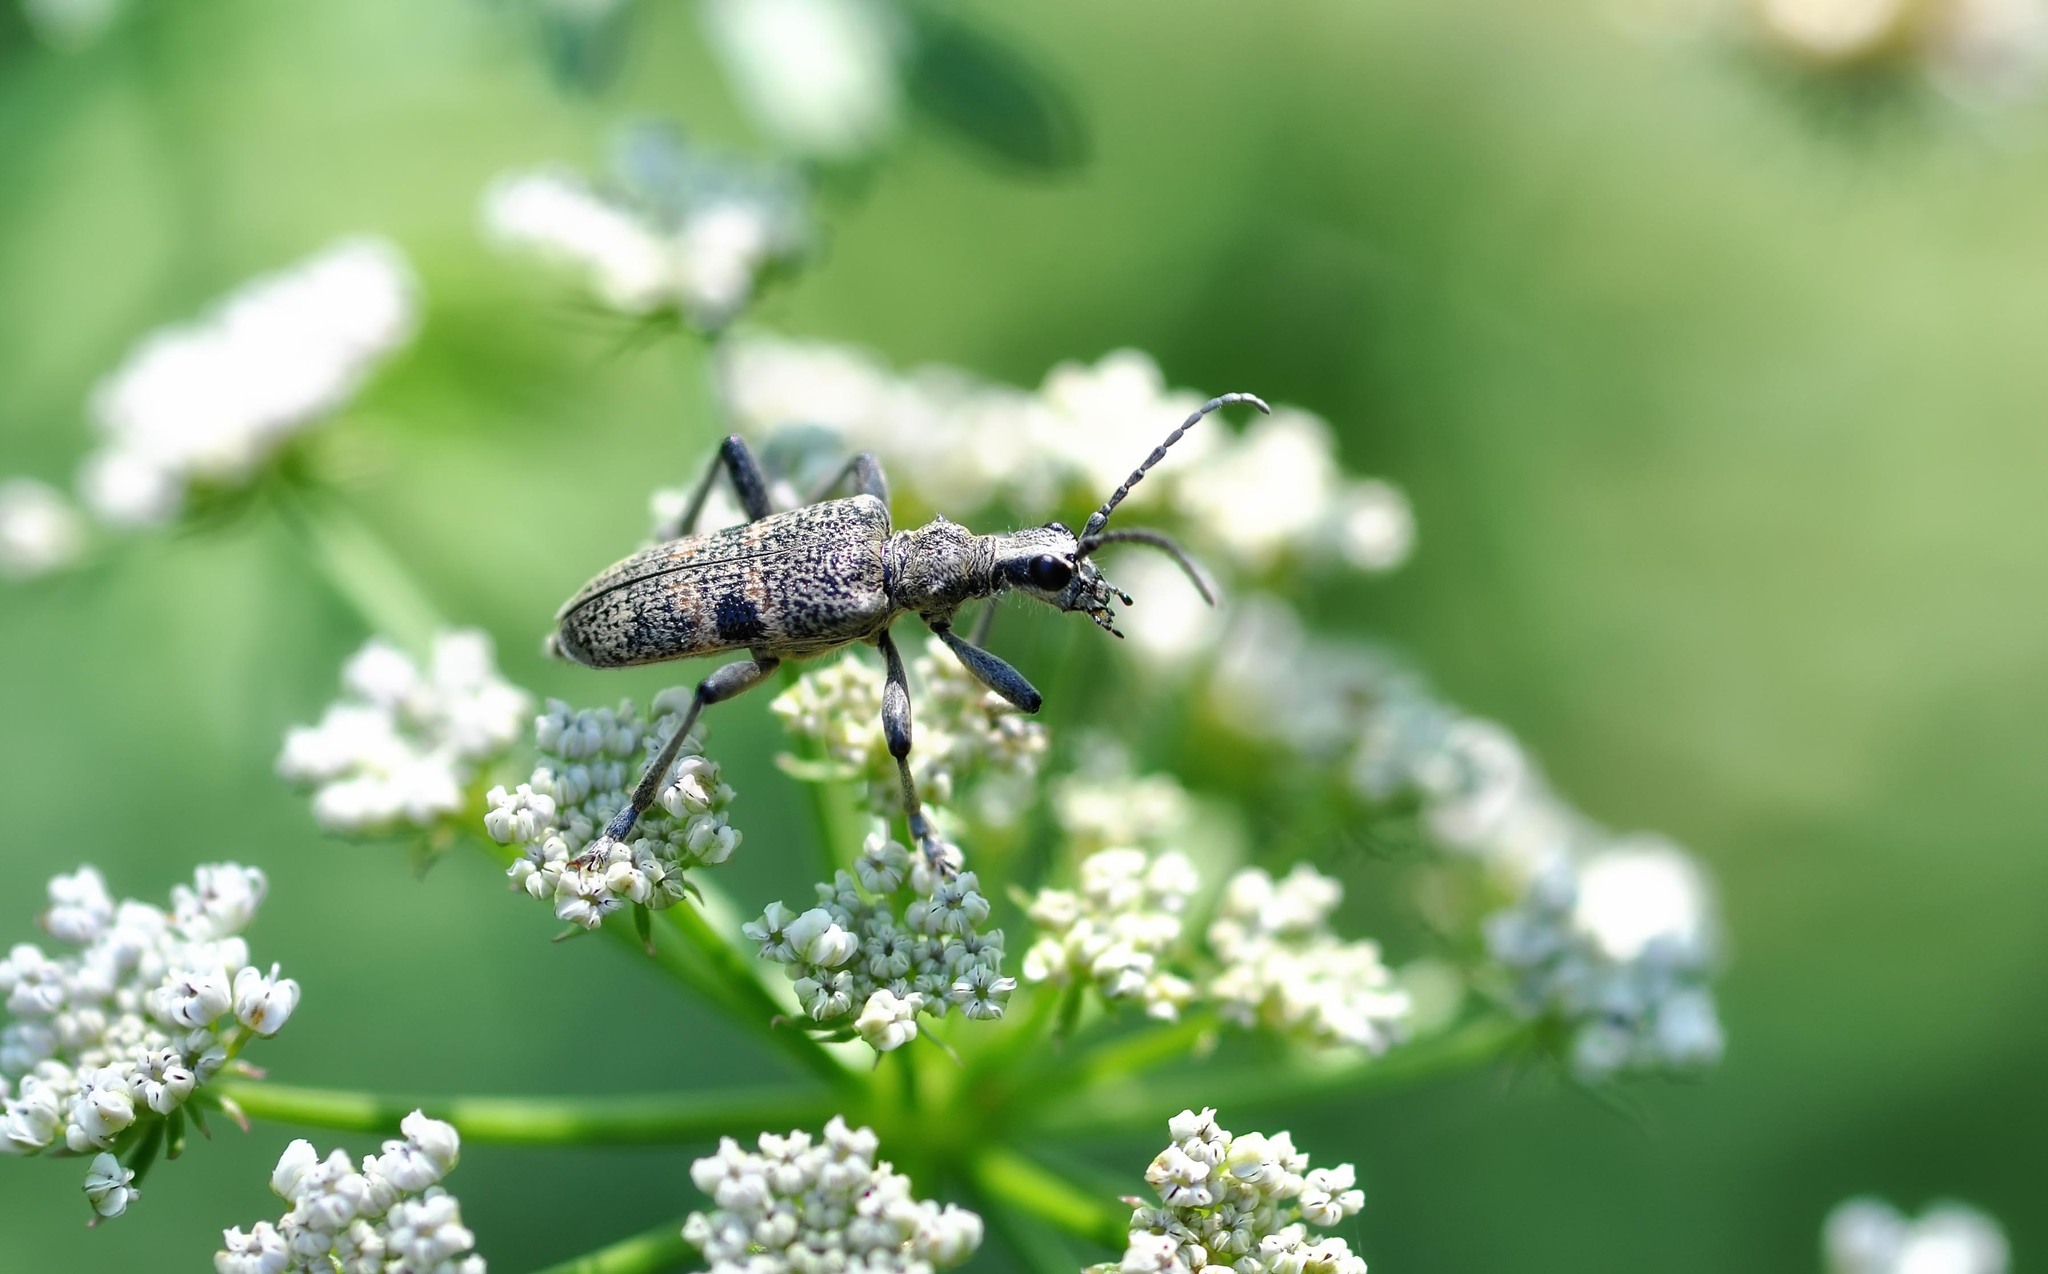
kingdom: Animalia
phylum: Arthropoda
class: Insecta
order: Coleoptera
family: Cerambycidae
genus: Rhagium
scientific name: Rhagium mordax
